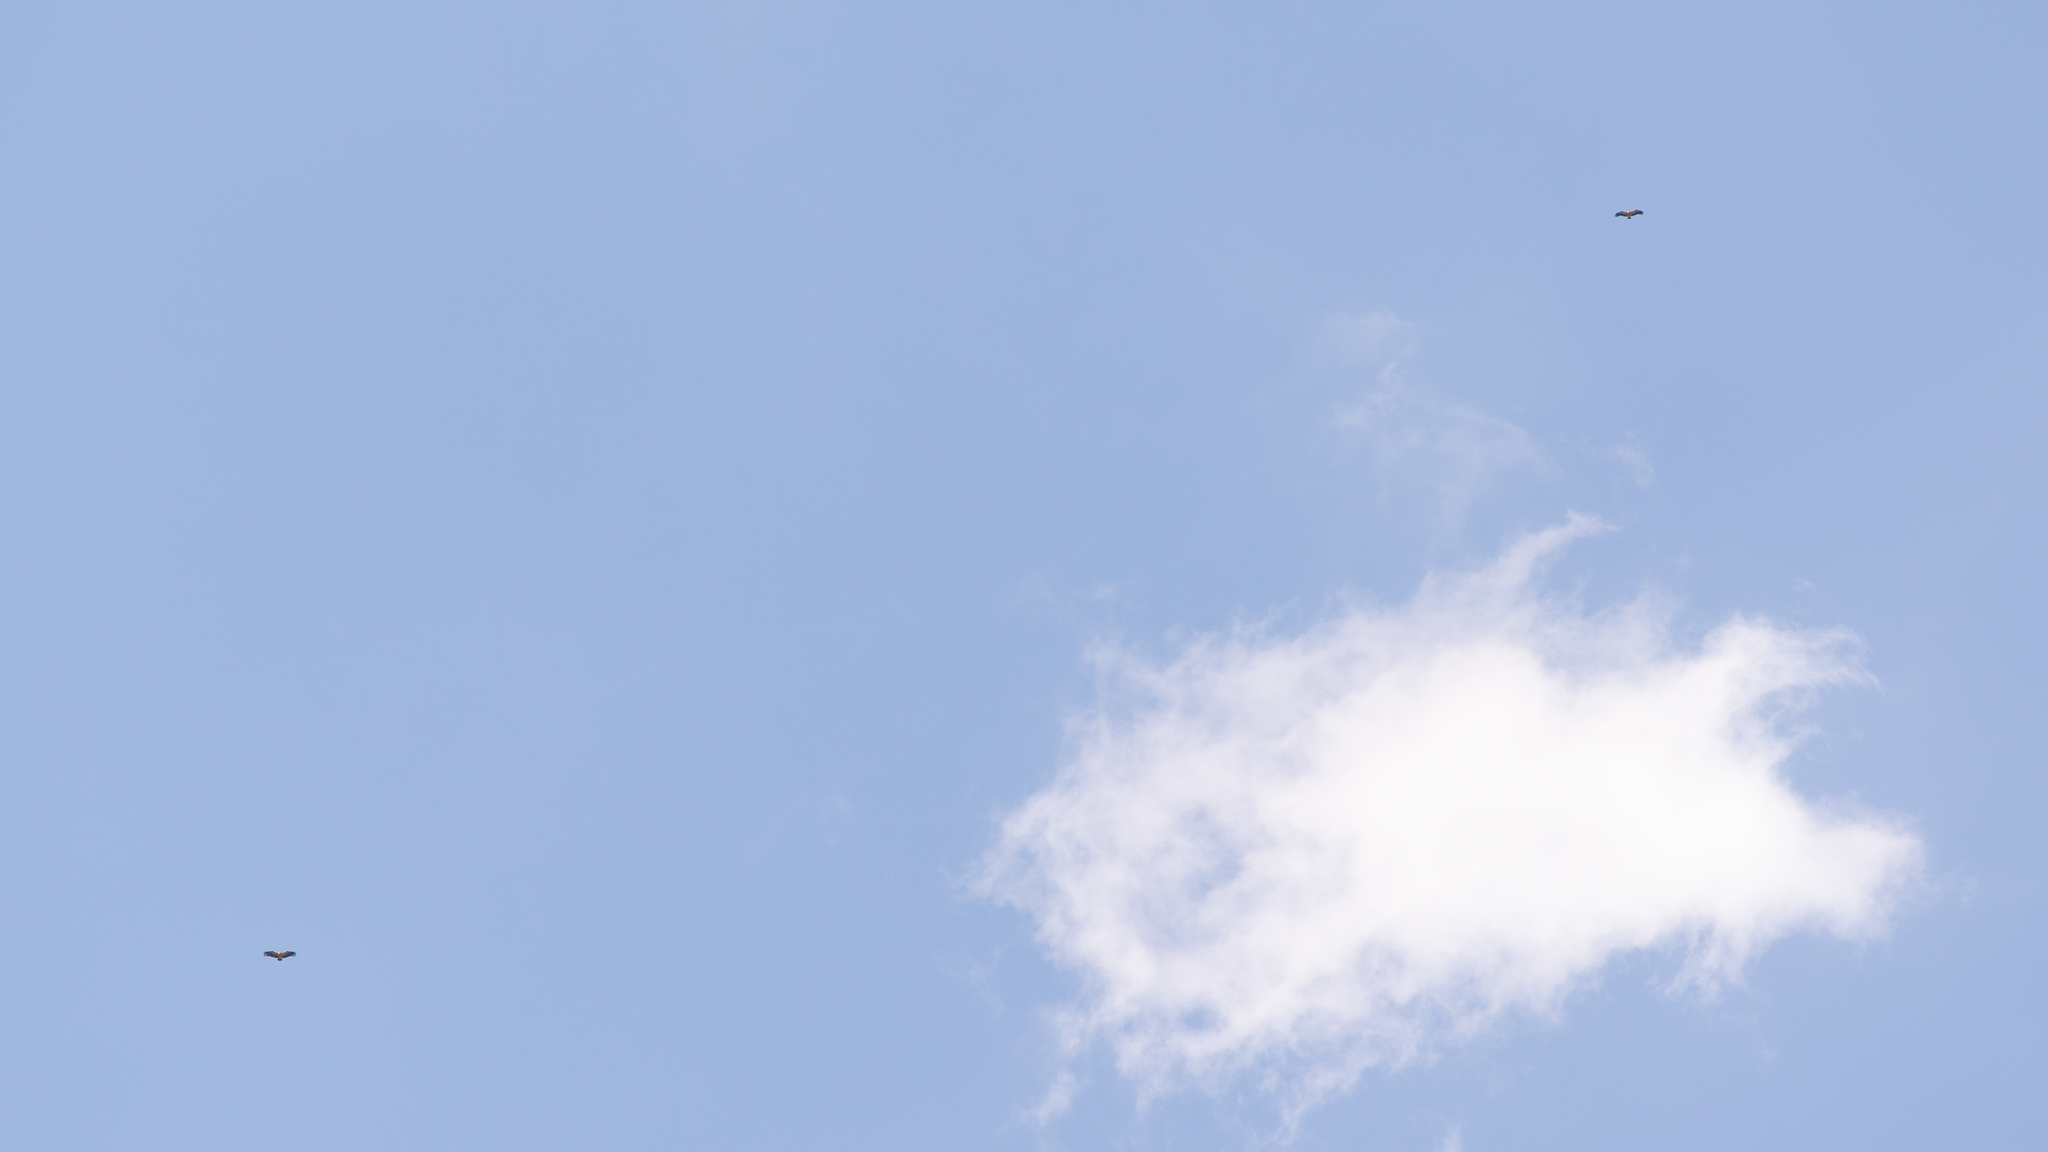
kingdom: Animalia
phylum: Chordata
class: Aves
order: Accipitriformes
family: Accipitridae
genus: Gyps
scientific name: Gyps fulvus
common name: Griffon vulture
